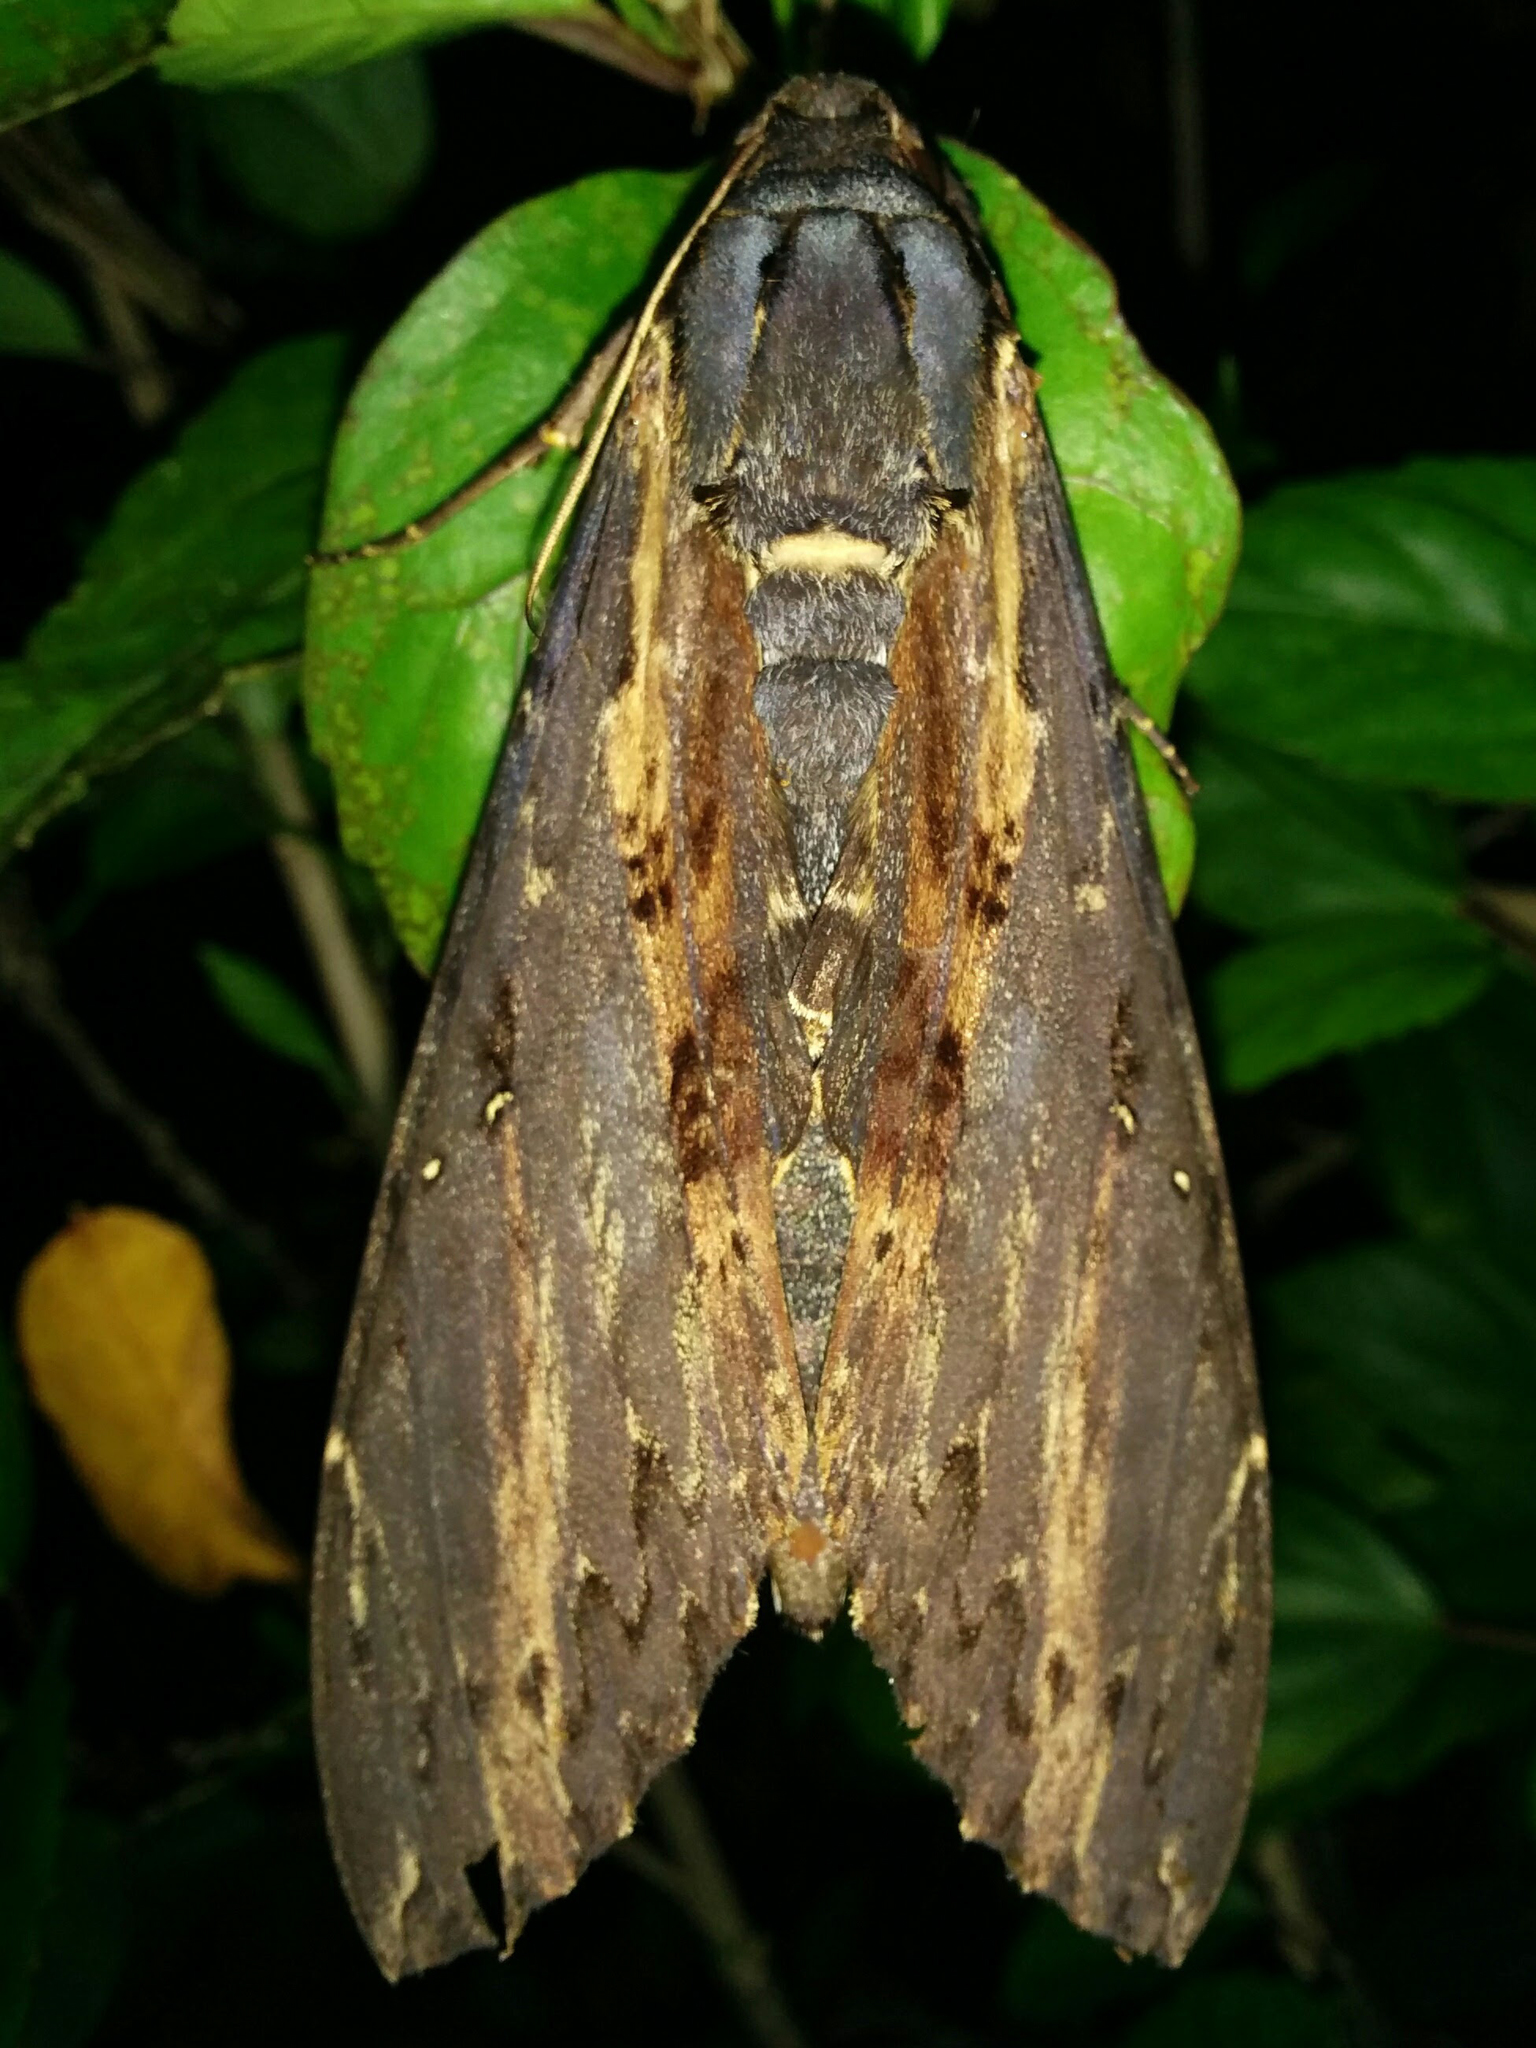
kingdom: Animalia
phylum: Arthropoda
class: Insecta
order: Lepidoptera
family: Sphingidae
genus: Neococytius
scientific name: Neococytius cluentius
